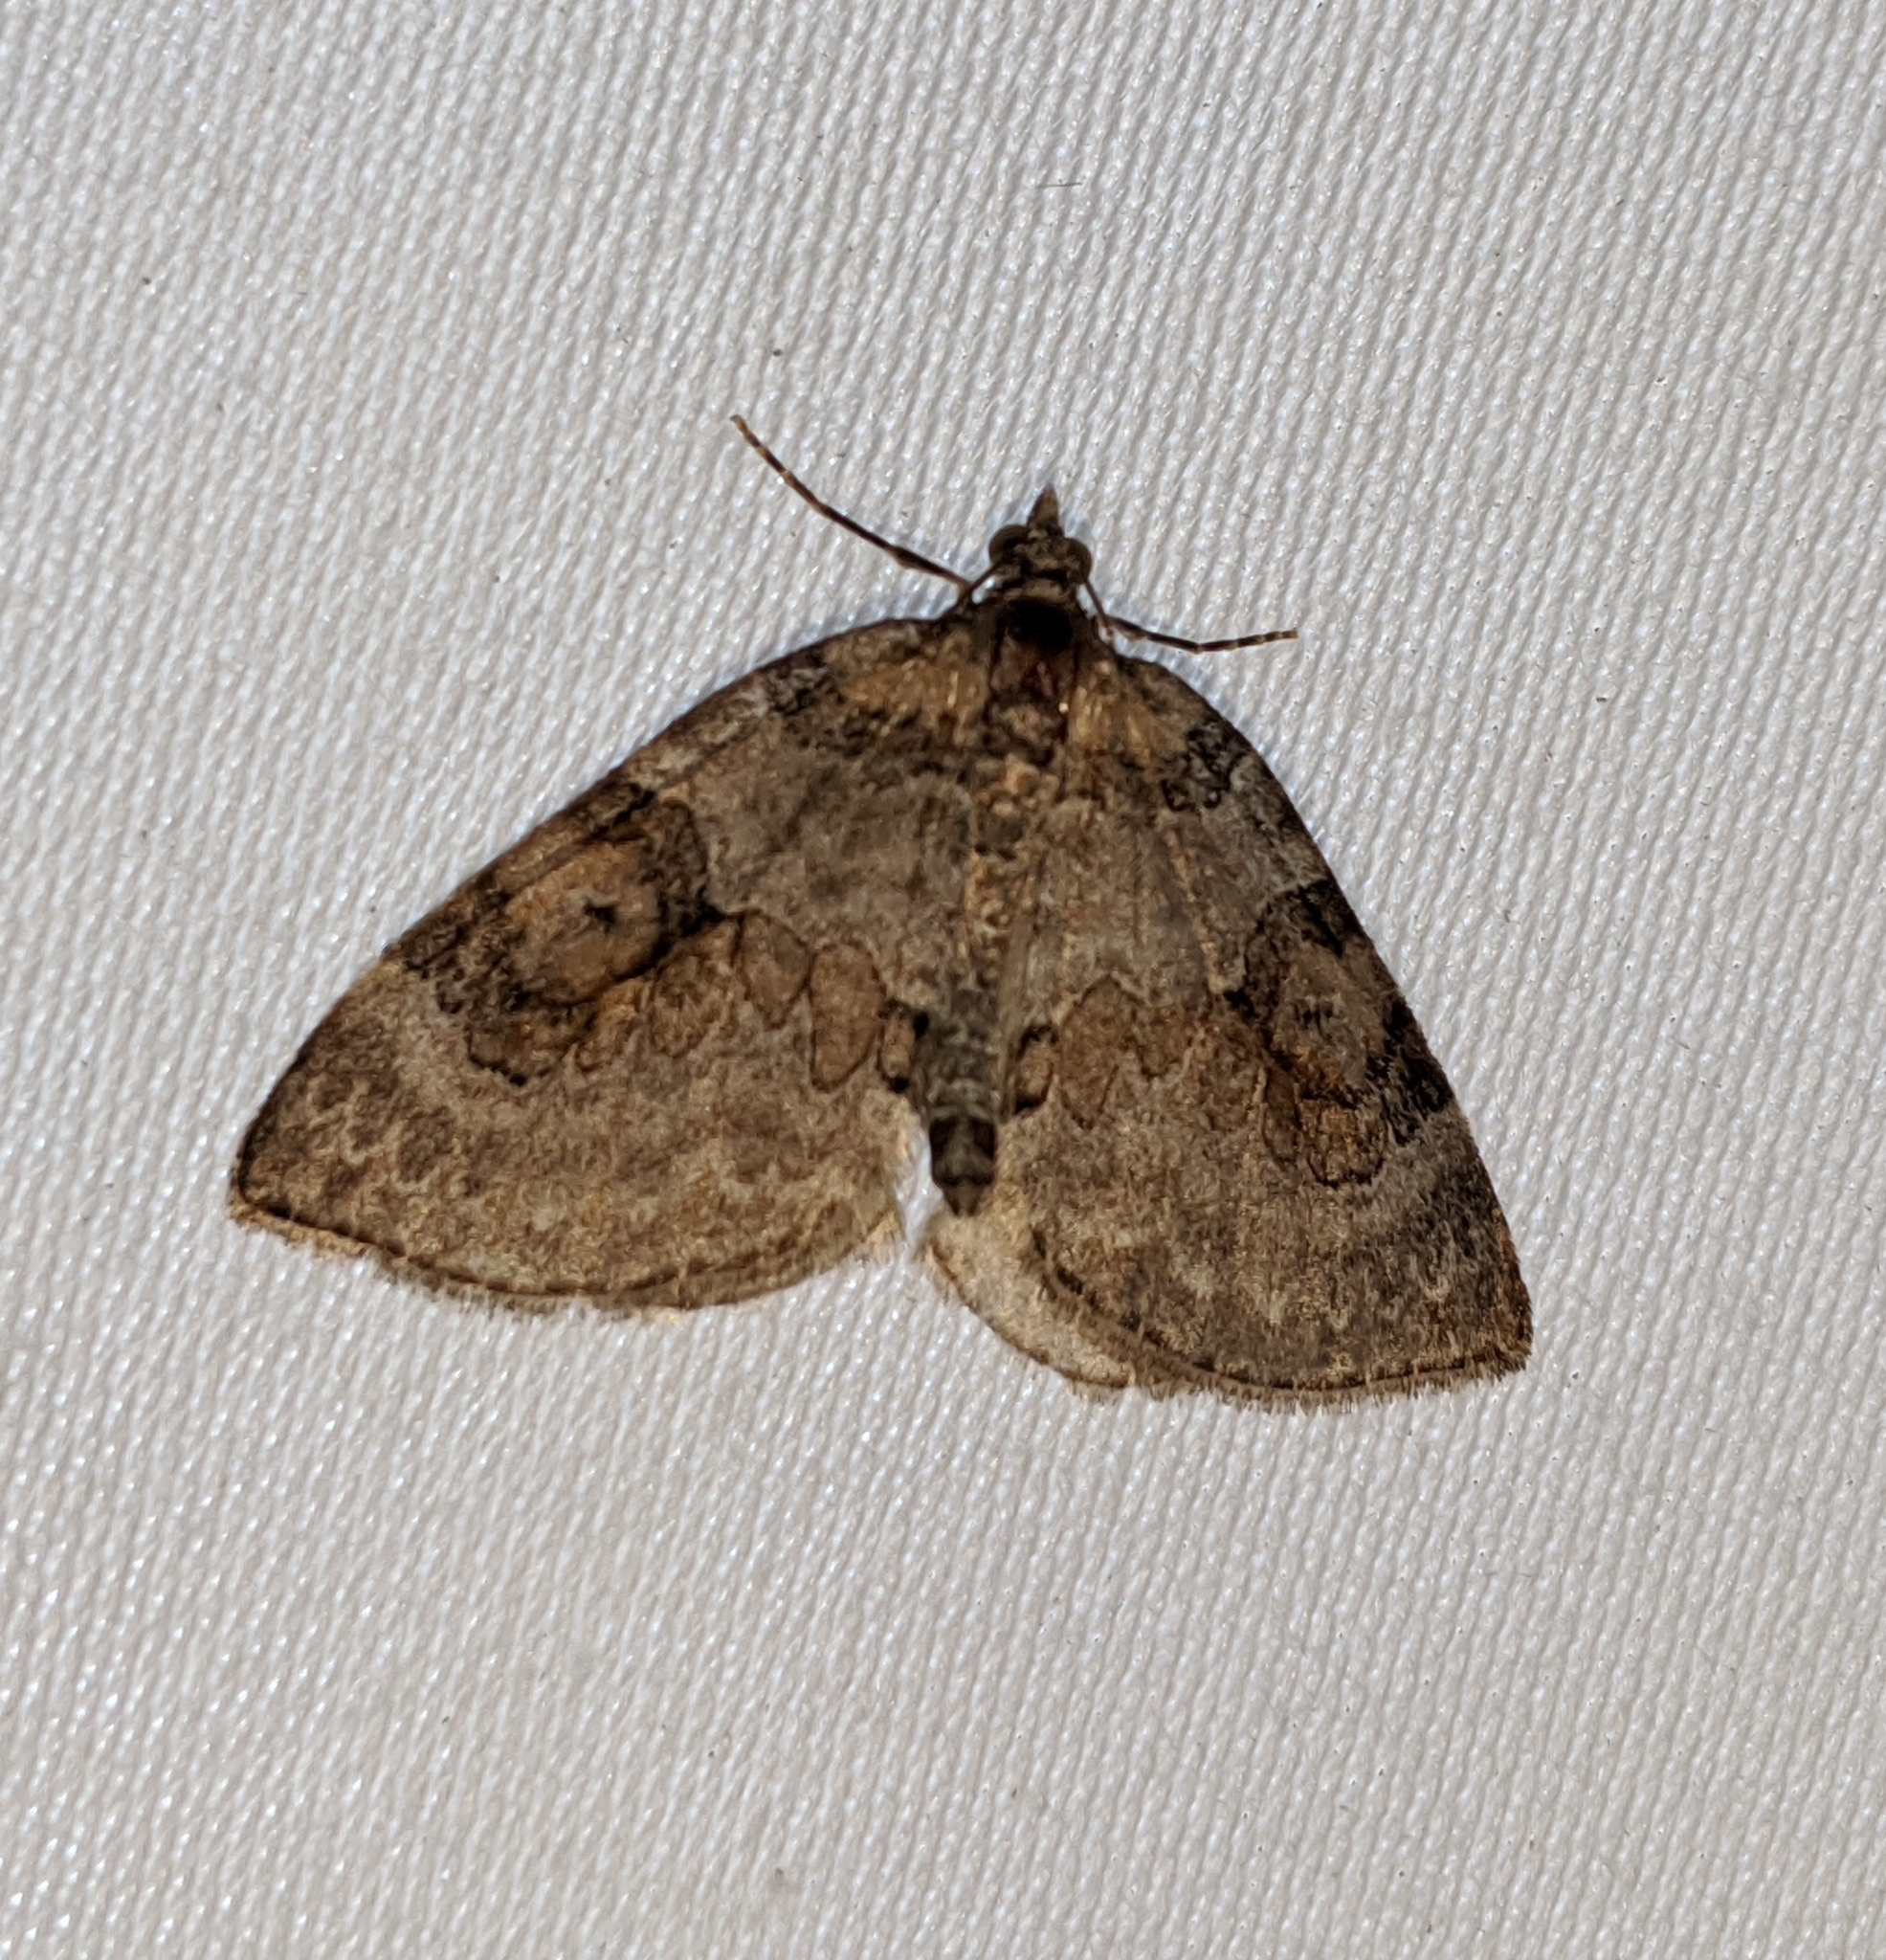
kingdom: Animalia
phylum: Arthropoda
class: Insecta
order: Lepidoptera
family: Geometridae
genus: Plemyria
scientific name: Plemyria georgii
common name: George's carpet moth
